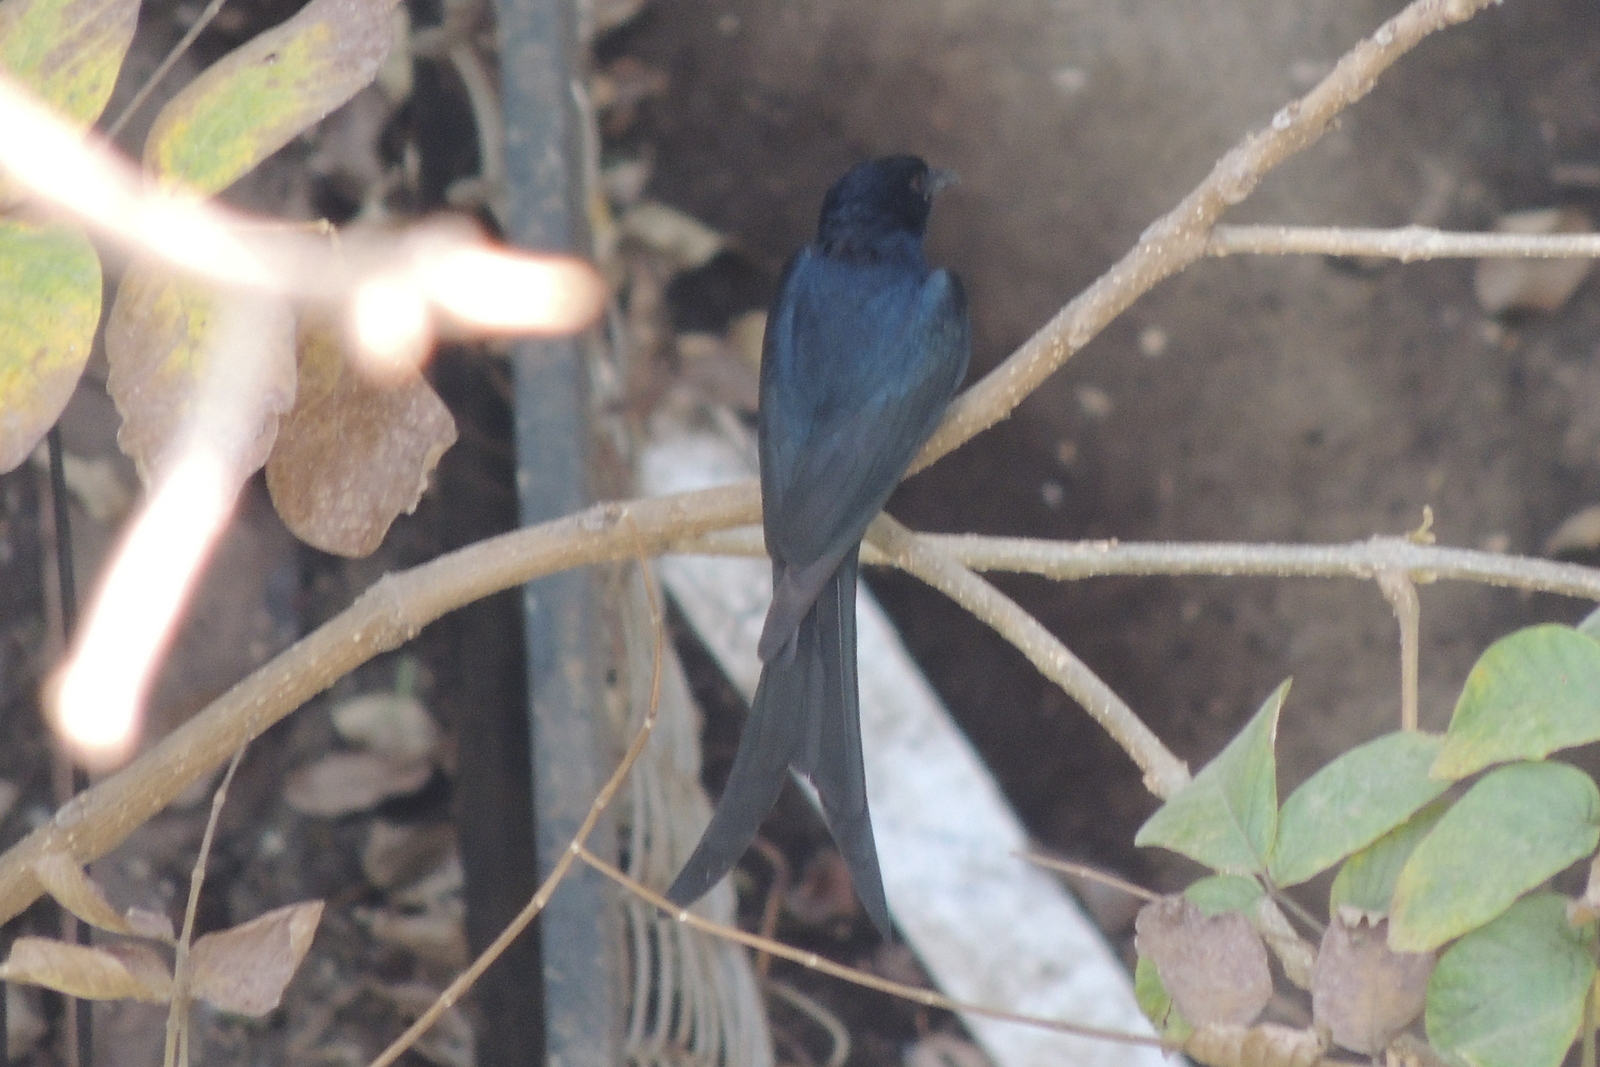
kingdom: Animalia
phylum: Chordata
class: Aves
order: Passeriformes
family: Dicruridae
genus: Dicrurus
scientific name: Dicrurus macrocercus
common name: Black drongo
